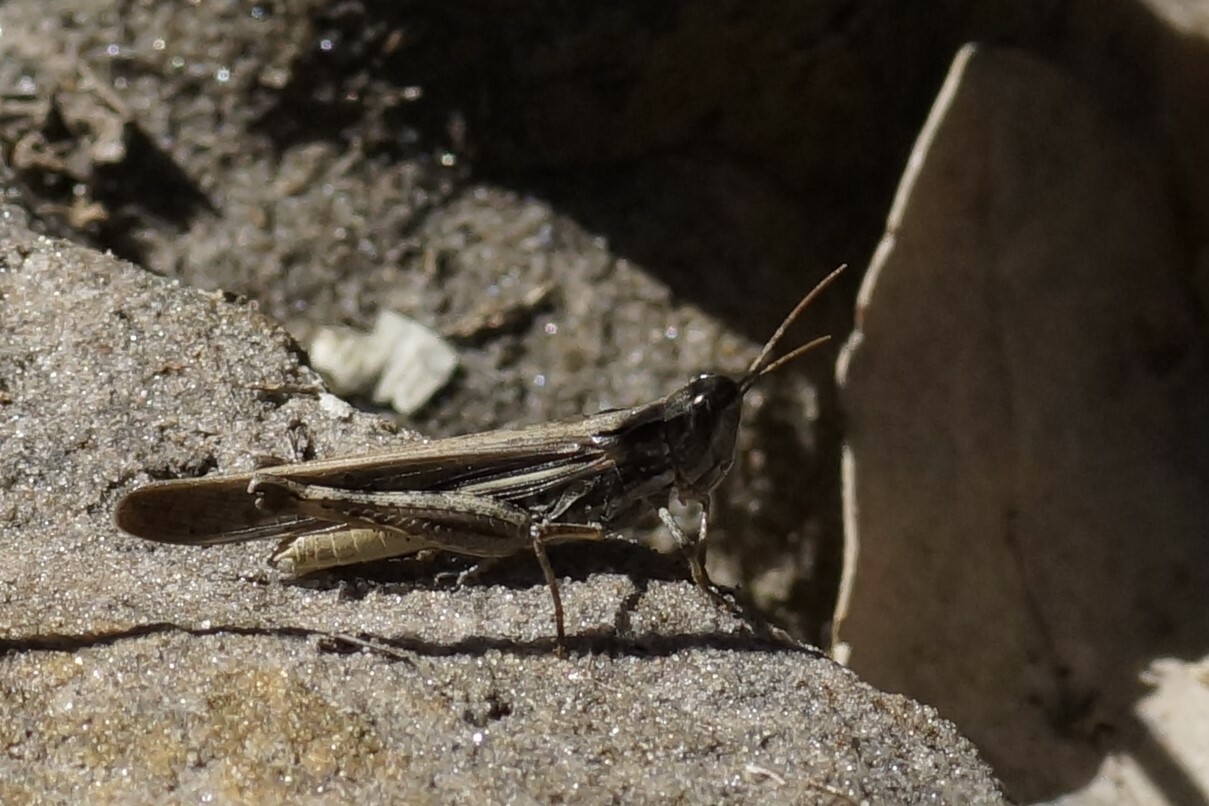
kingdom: Animalia
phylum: Arthropoda
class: Insecta
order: Orthoptera
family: Acrididae
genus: Aiolopus
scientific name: Aiolopus thalassinus
